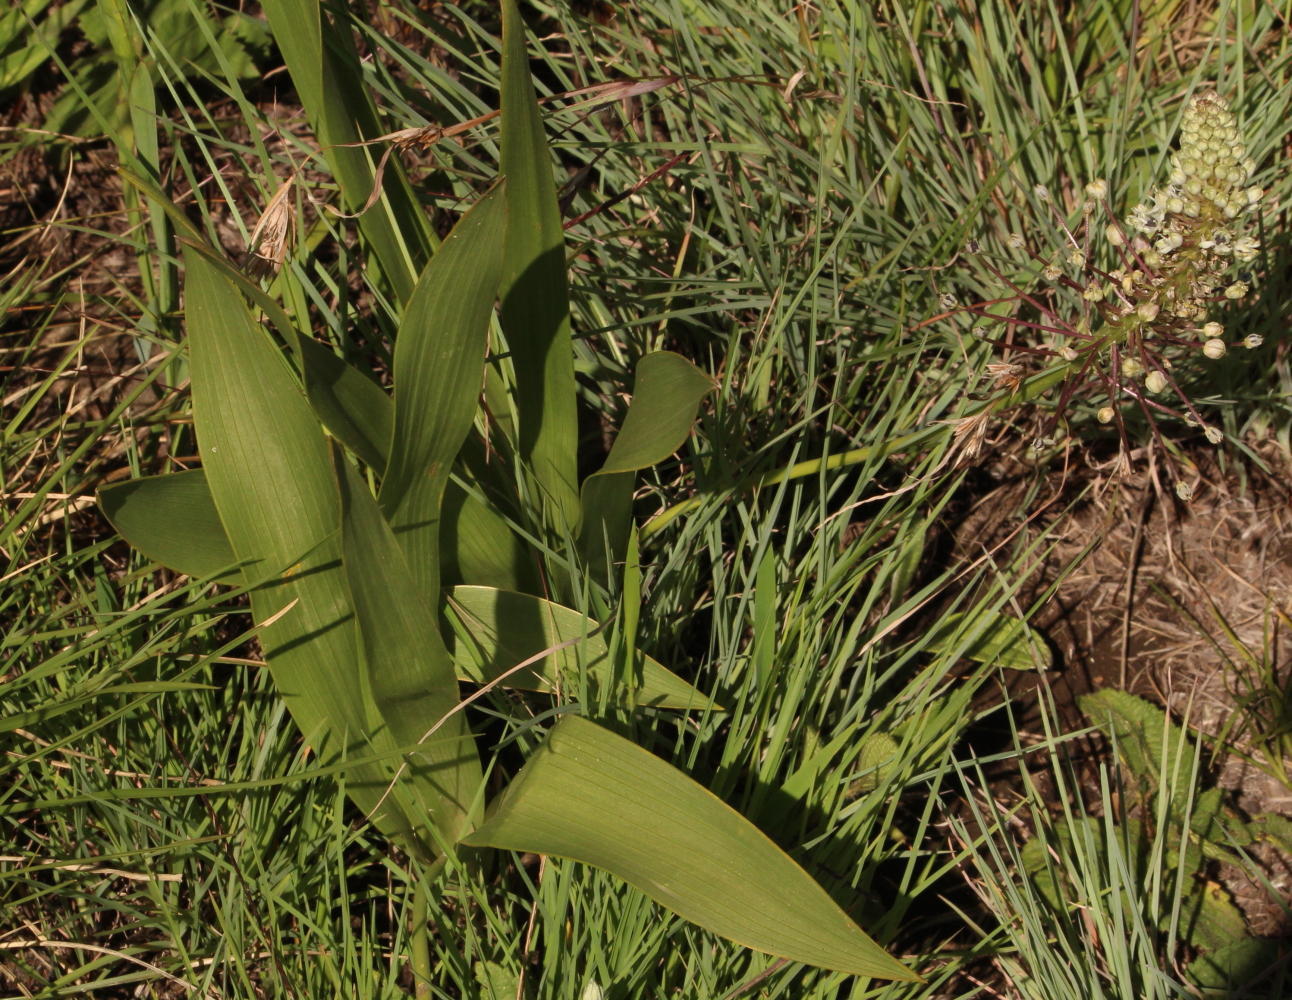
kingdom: Plantae
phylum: Tracheophyta
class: Liliopsida
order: Asparagales
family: Asparagaceae
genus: Schizocarphus
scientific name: Schizocarphus nervosus
